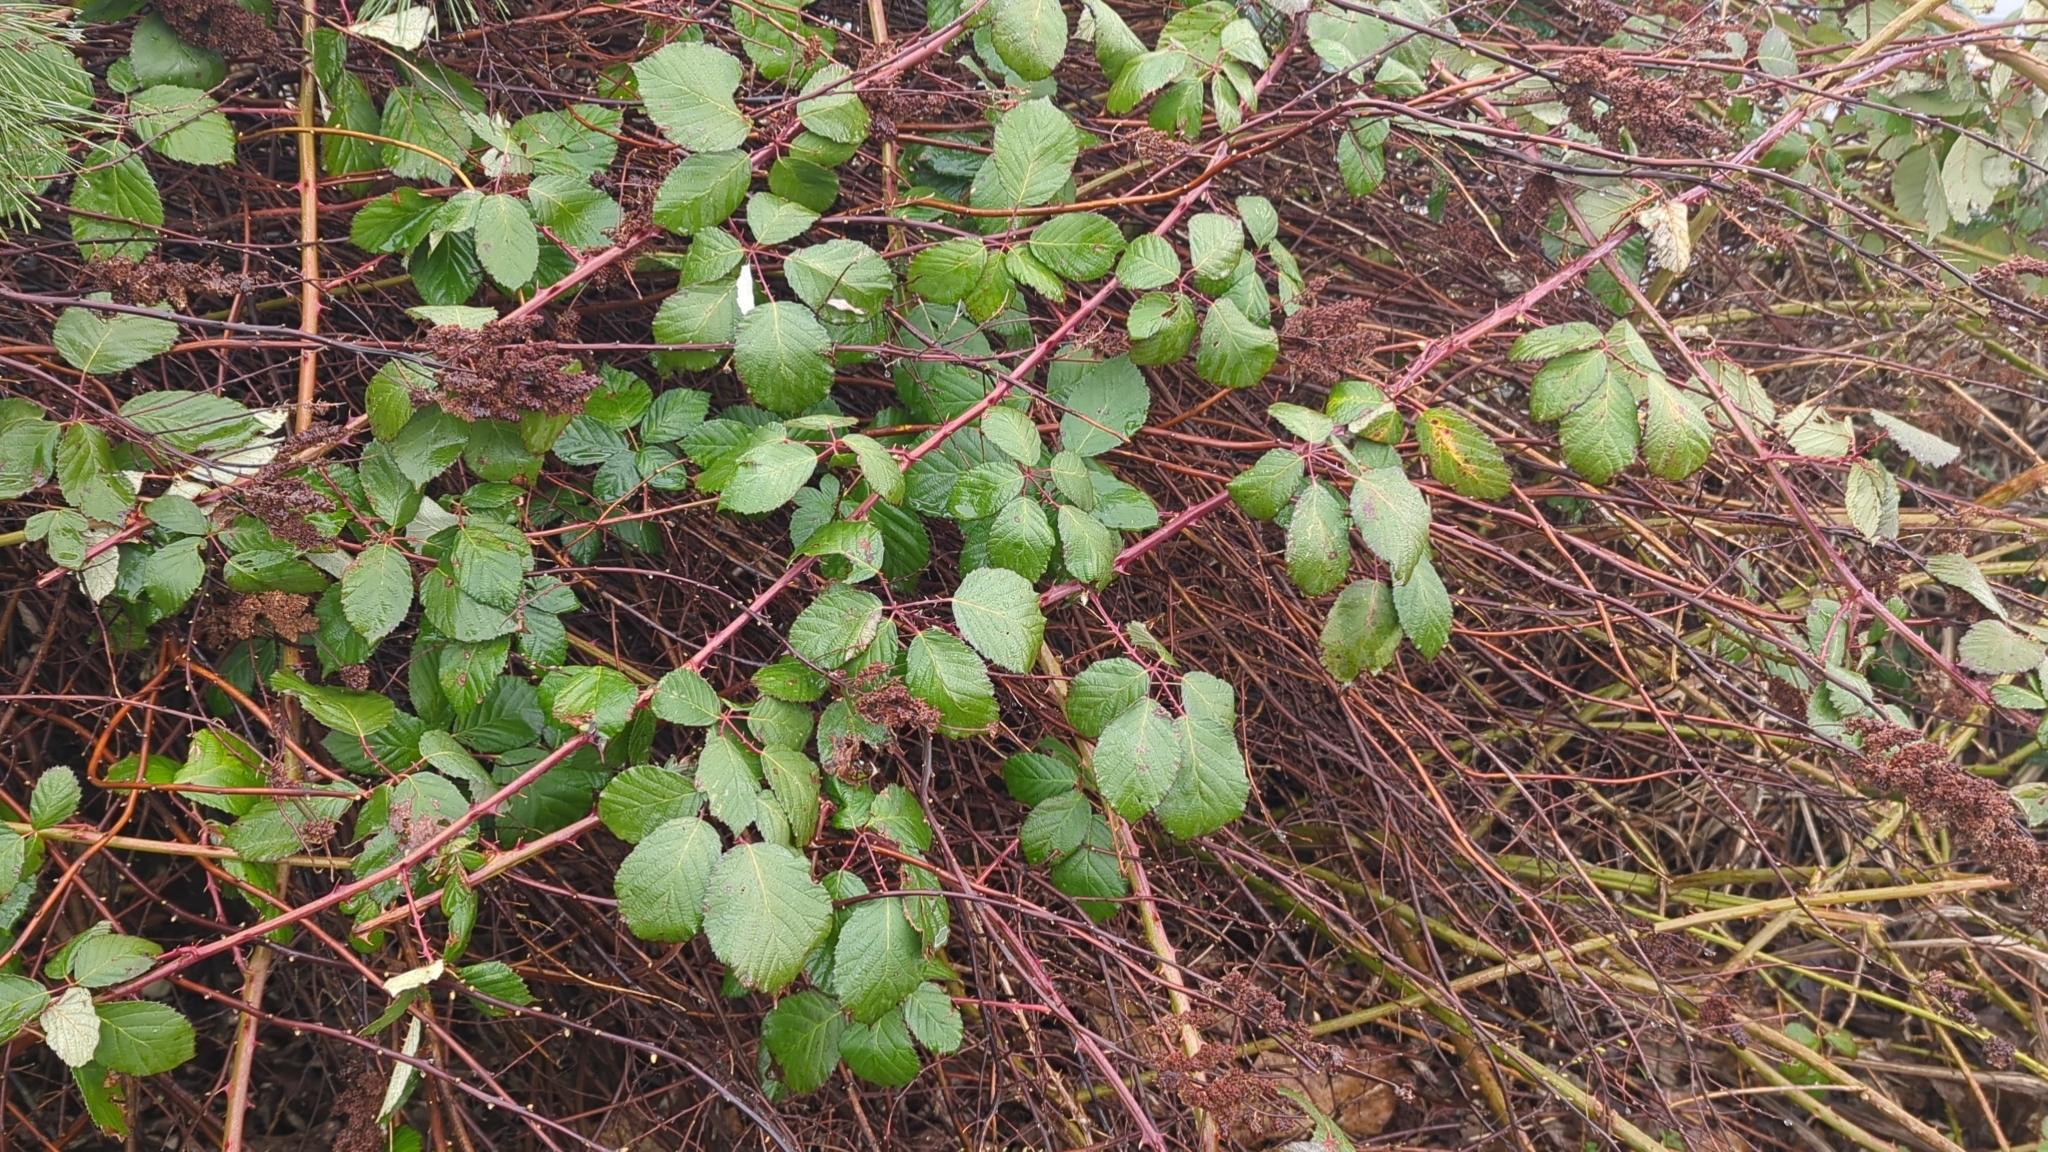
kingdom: Plantae
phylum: Tracheophyta
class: Magnoliopsida
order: Rosales
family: Rosaceae
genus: Rubus
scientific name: Rubus bifrons
